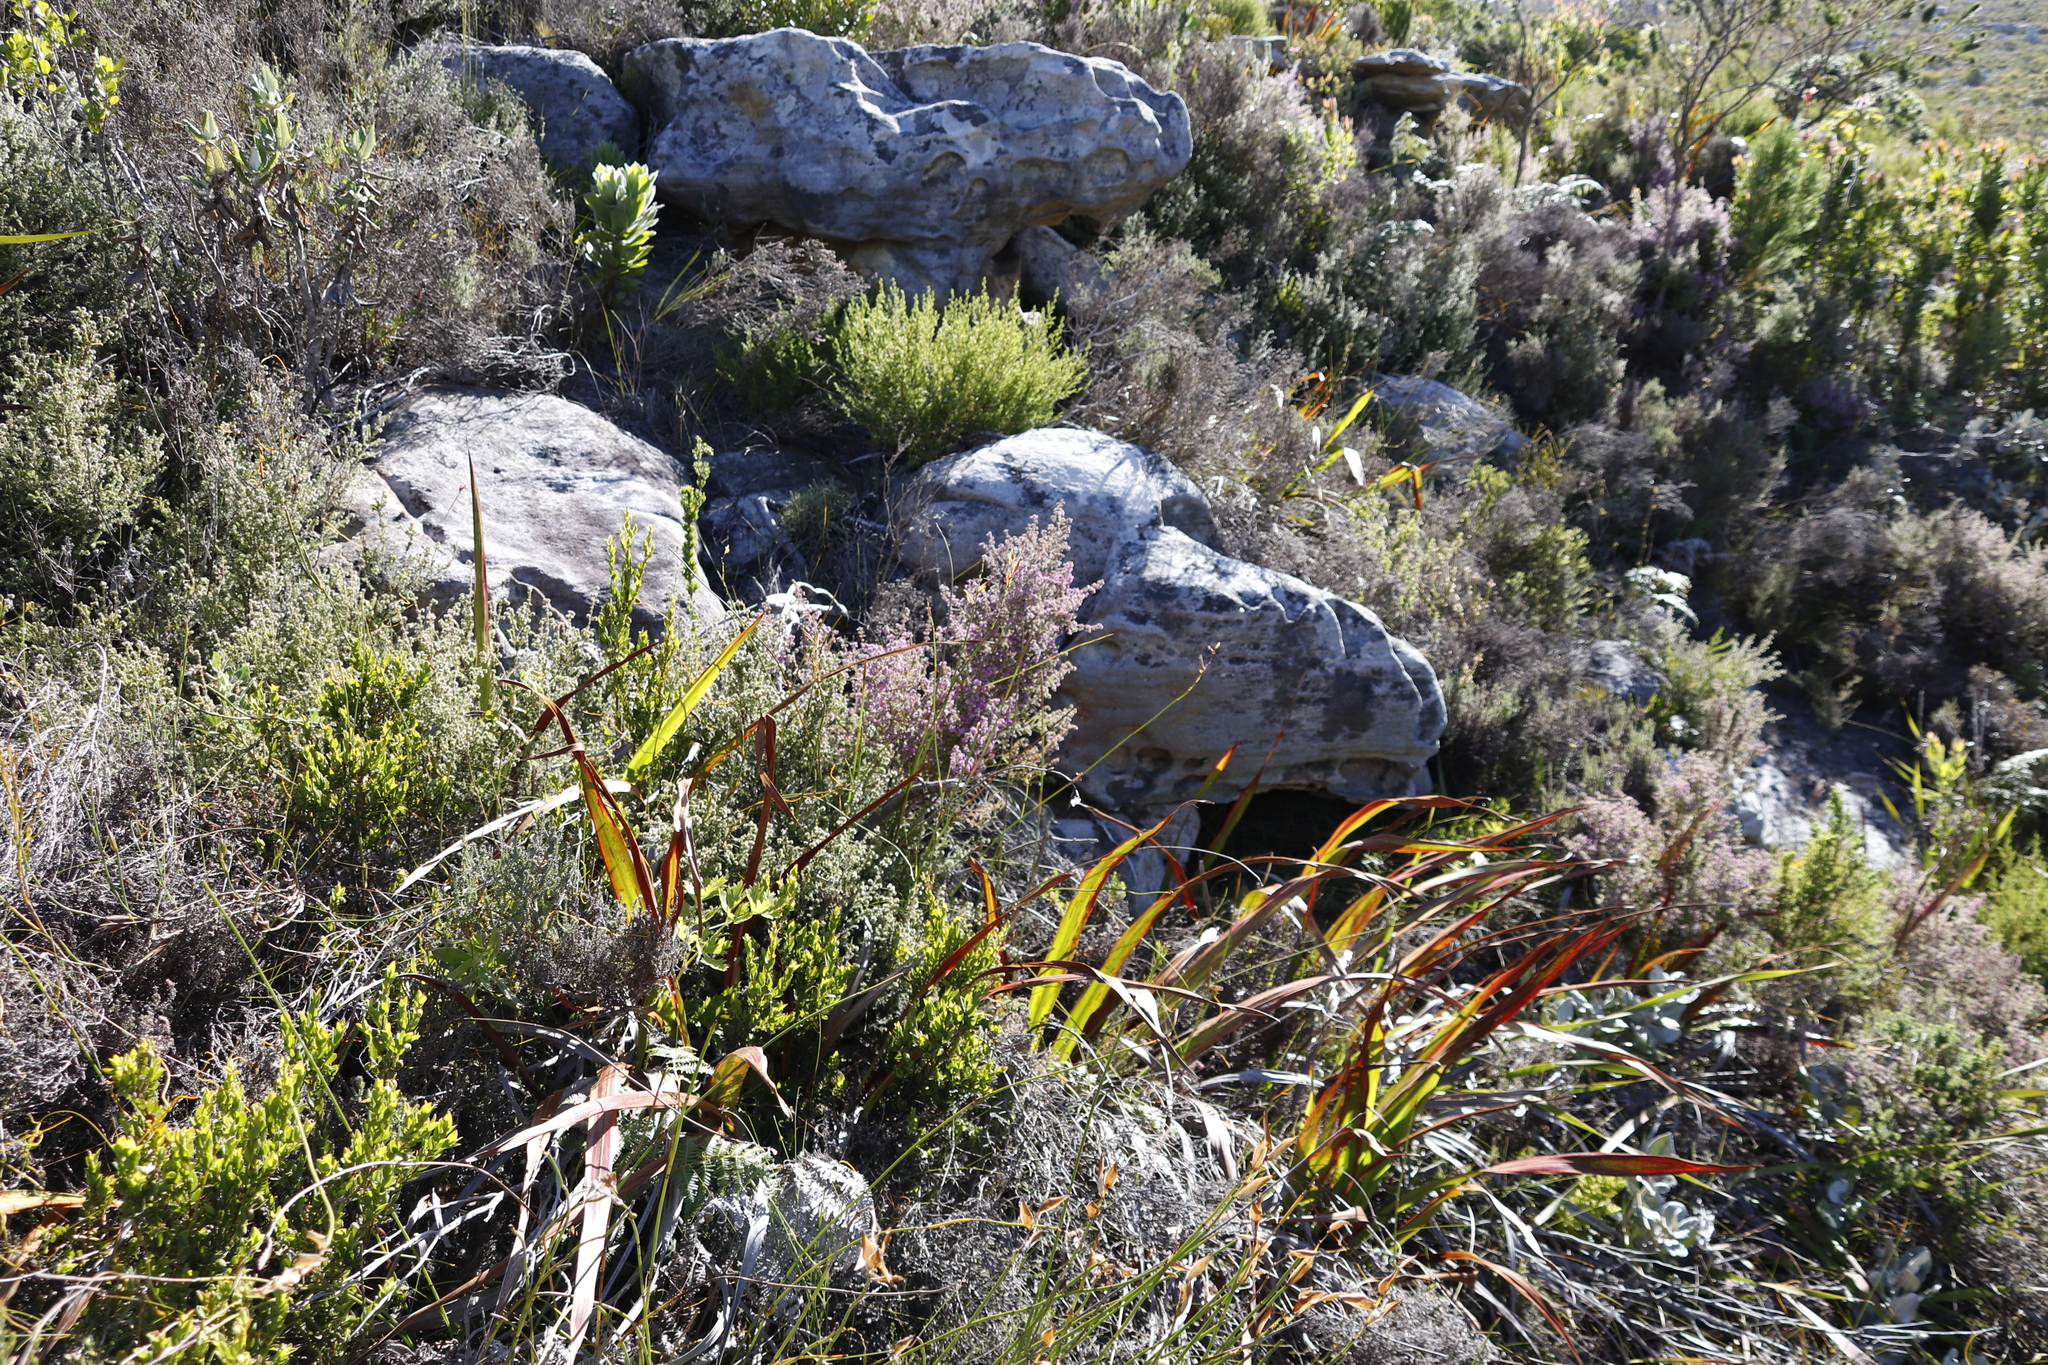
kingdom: Plantae
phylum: Tracheophyta
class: Magnoliopsida
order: Ericales
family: Ericaceae
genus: Erica
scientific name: Erica hirtiflora
